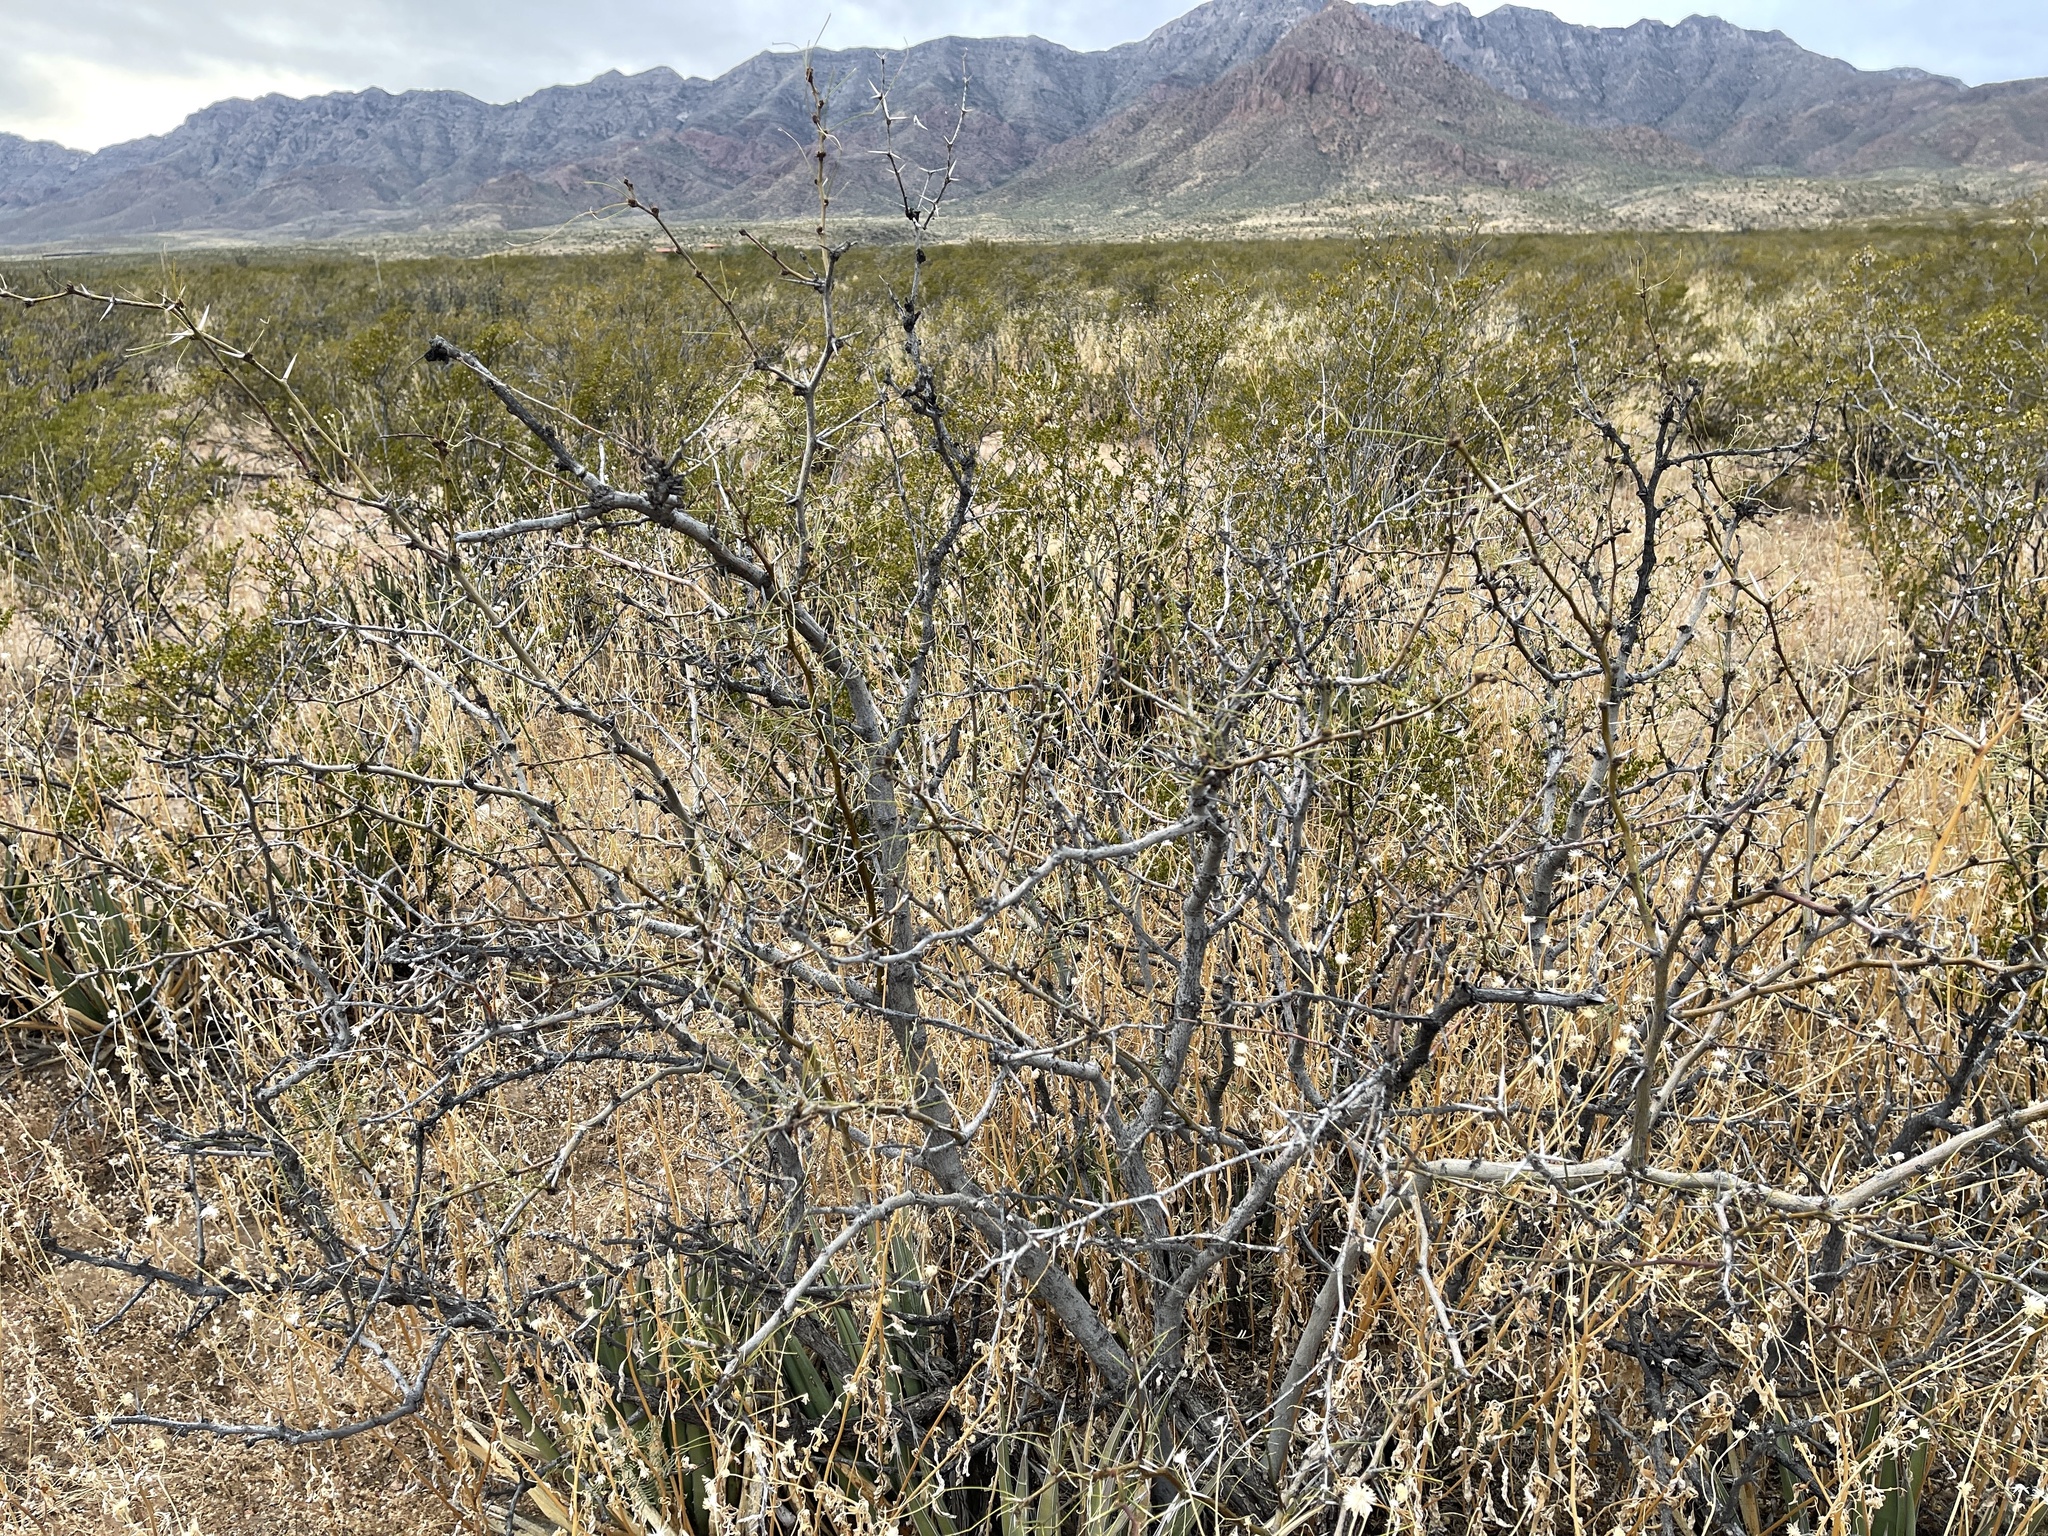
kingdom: Plantae
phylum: Tracheophyta
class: Magnoliopsida
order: Fabales
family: Fabaceae
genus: Prosopis
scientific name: Prosopis glandulosa
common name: Honey mesquite
